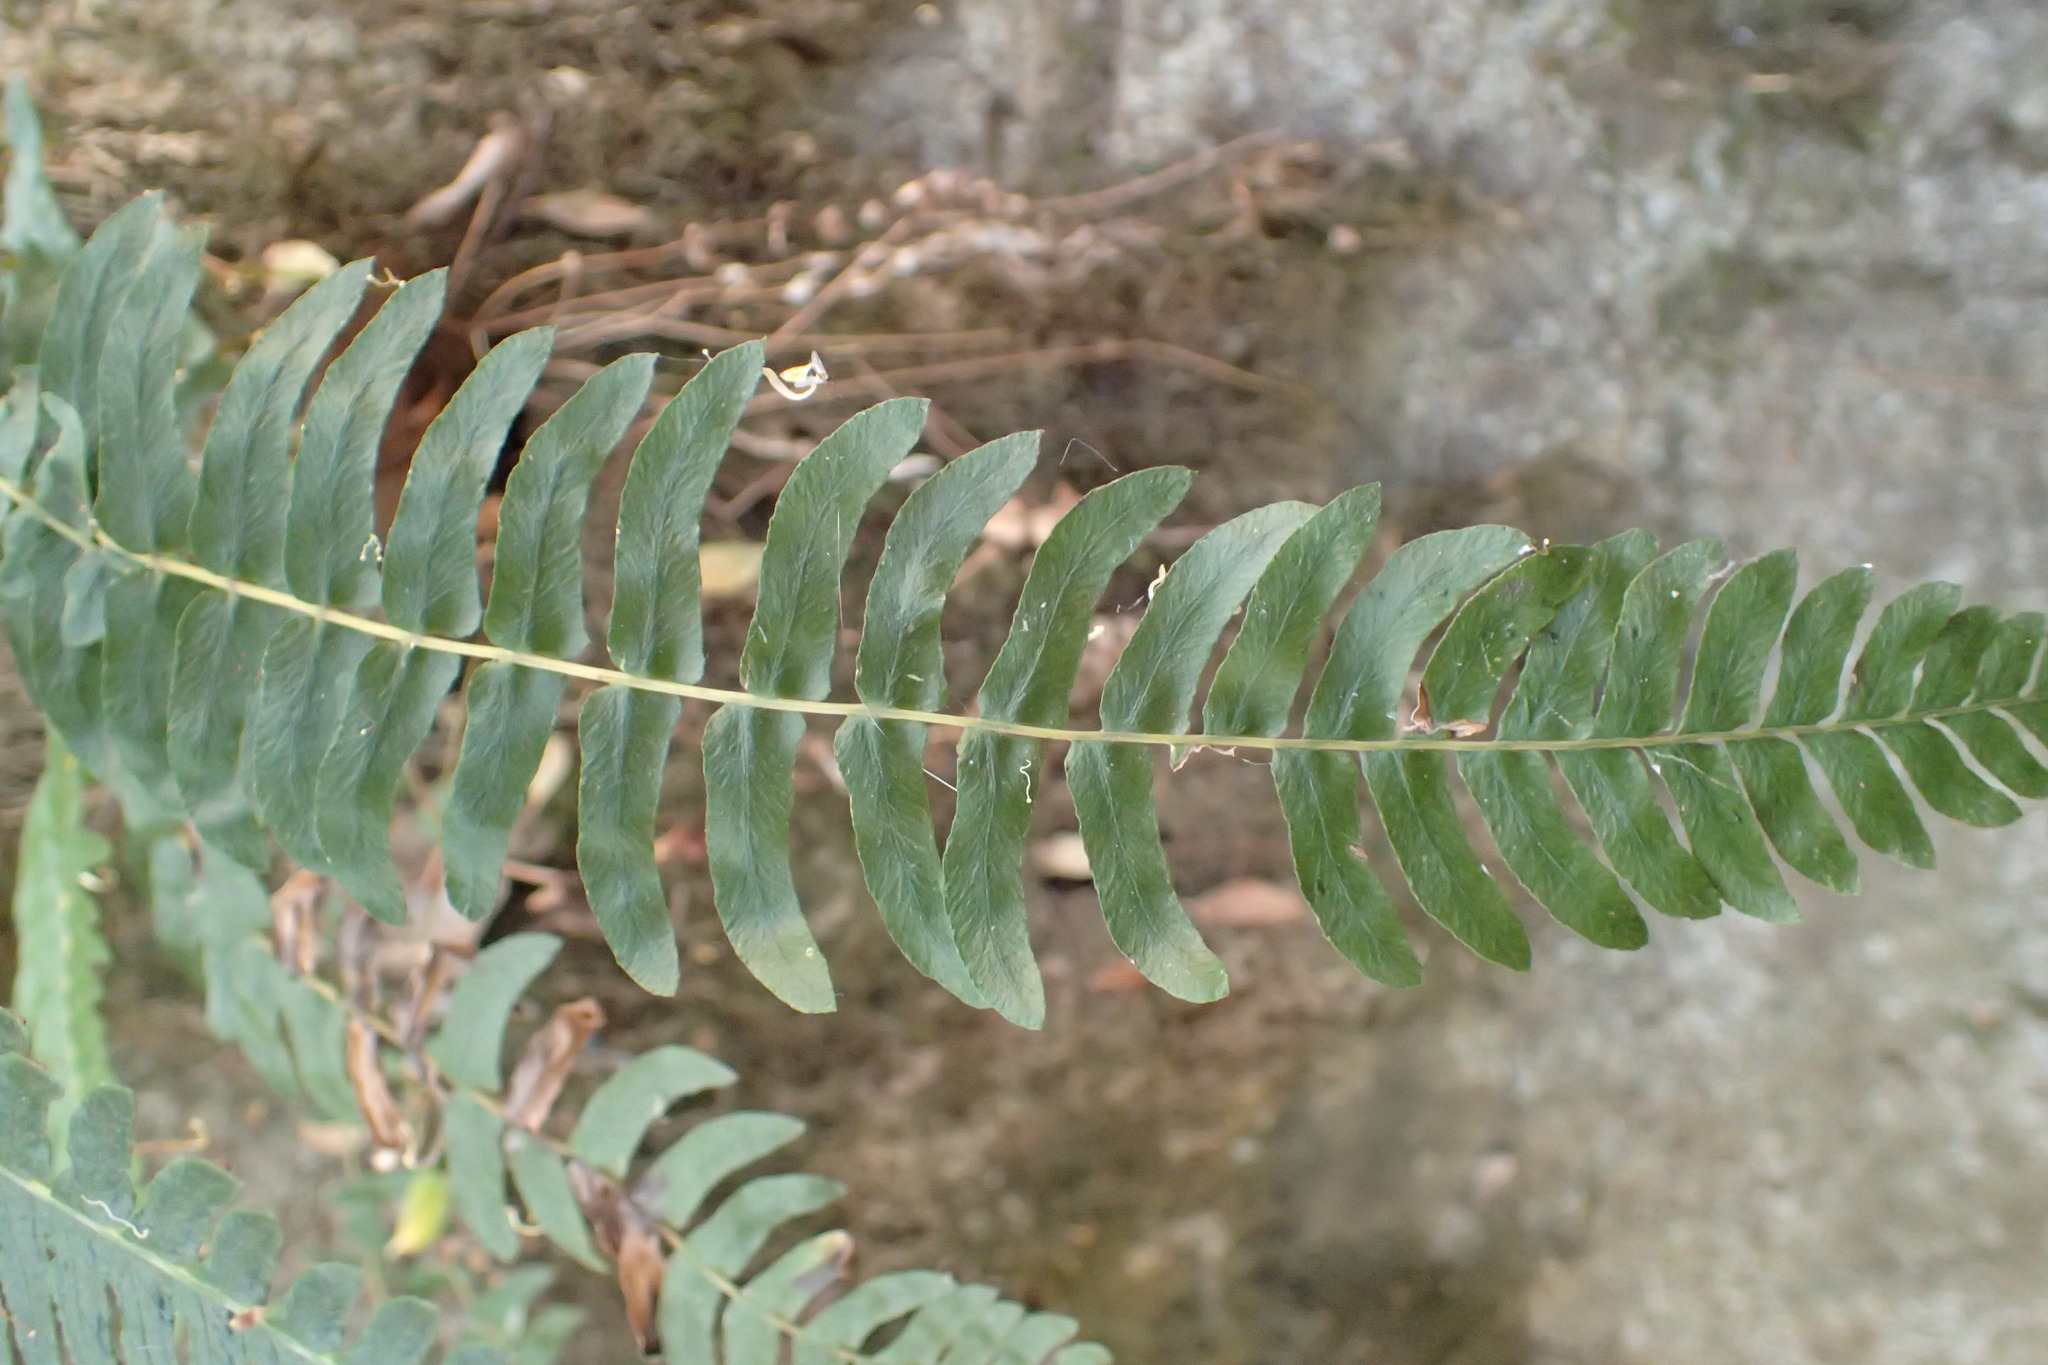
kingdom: Plantae
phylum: Tracheophyta
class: Polypodiopsida
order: Polypodiales
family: Blechnaceae
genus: Blechnum
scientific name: Blechnum hastatum
